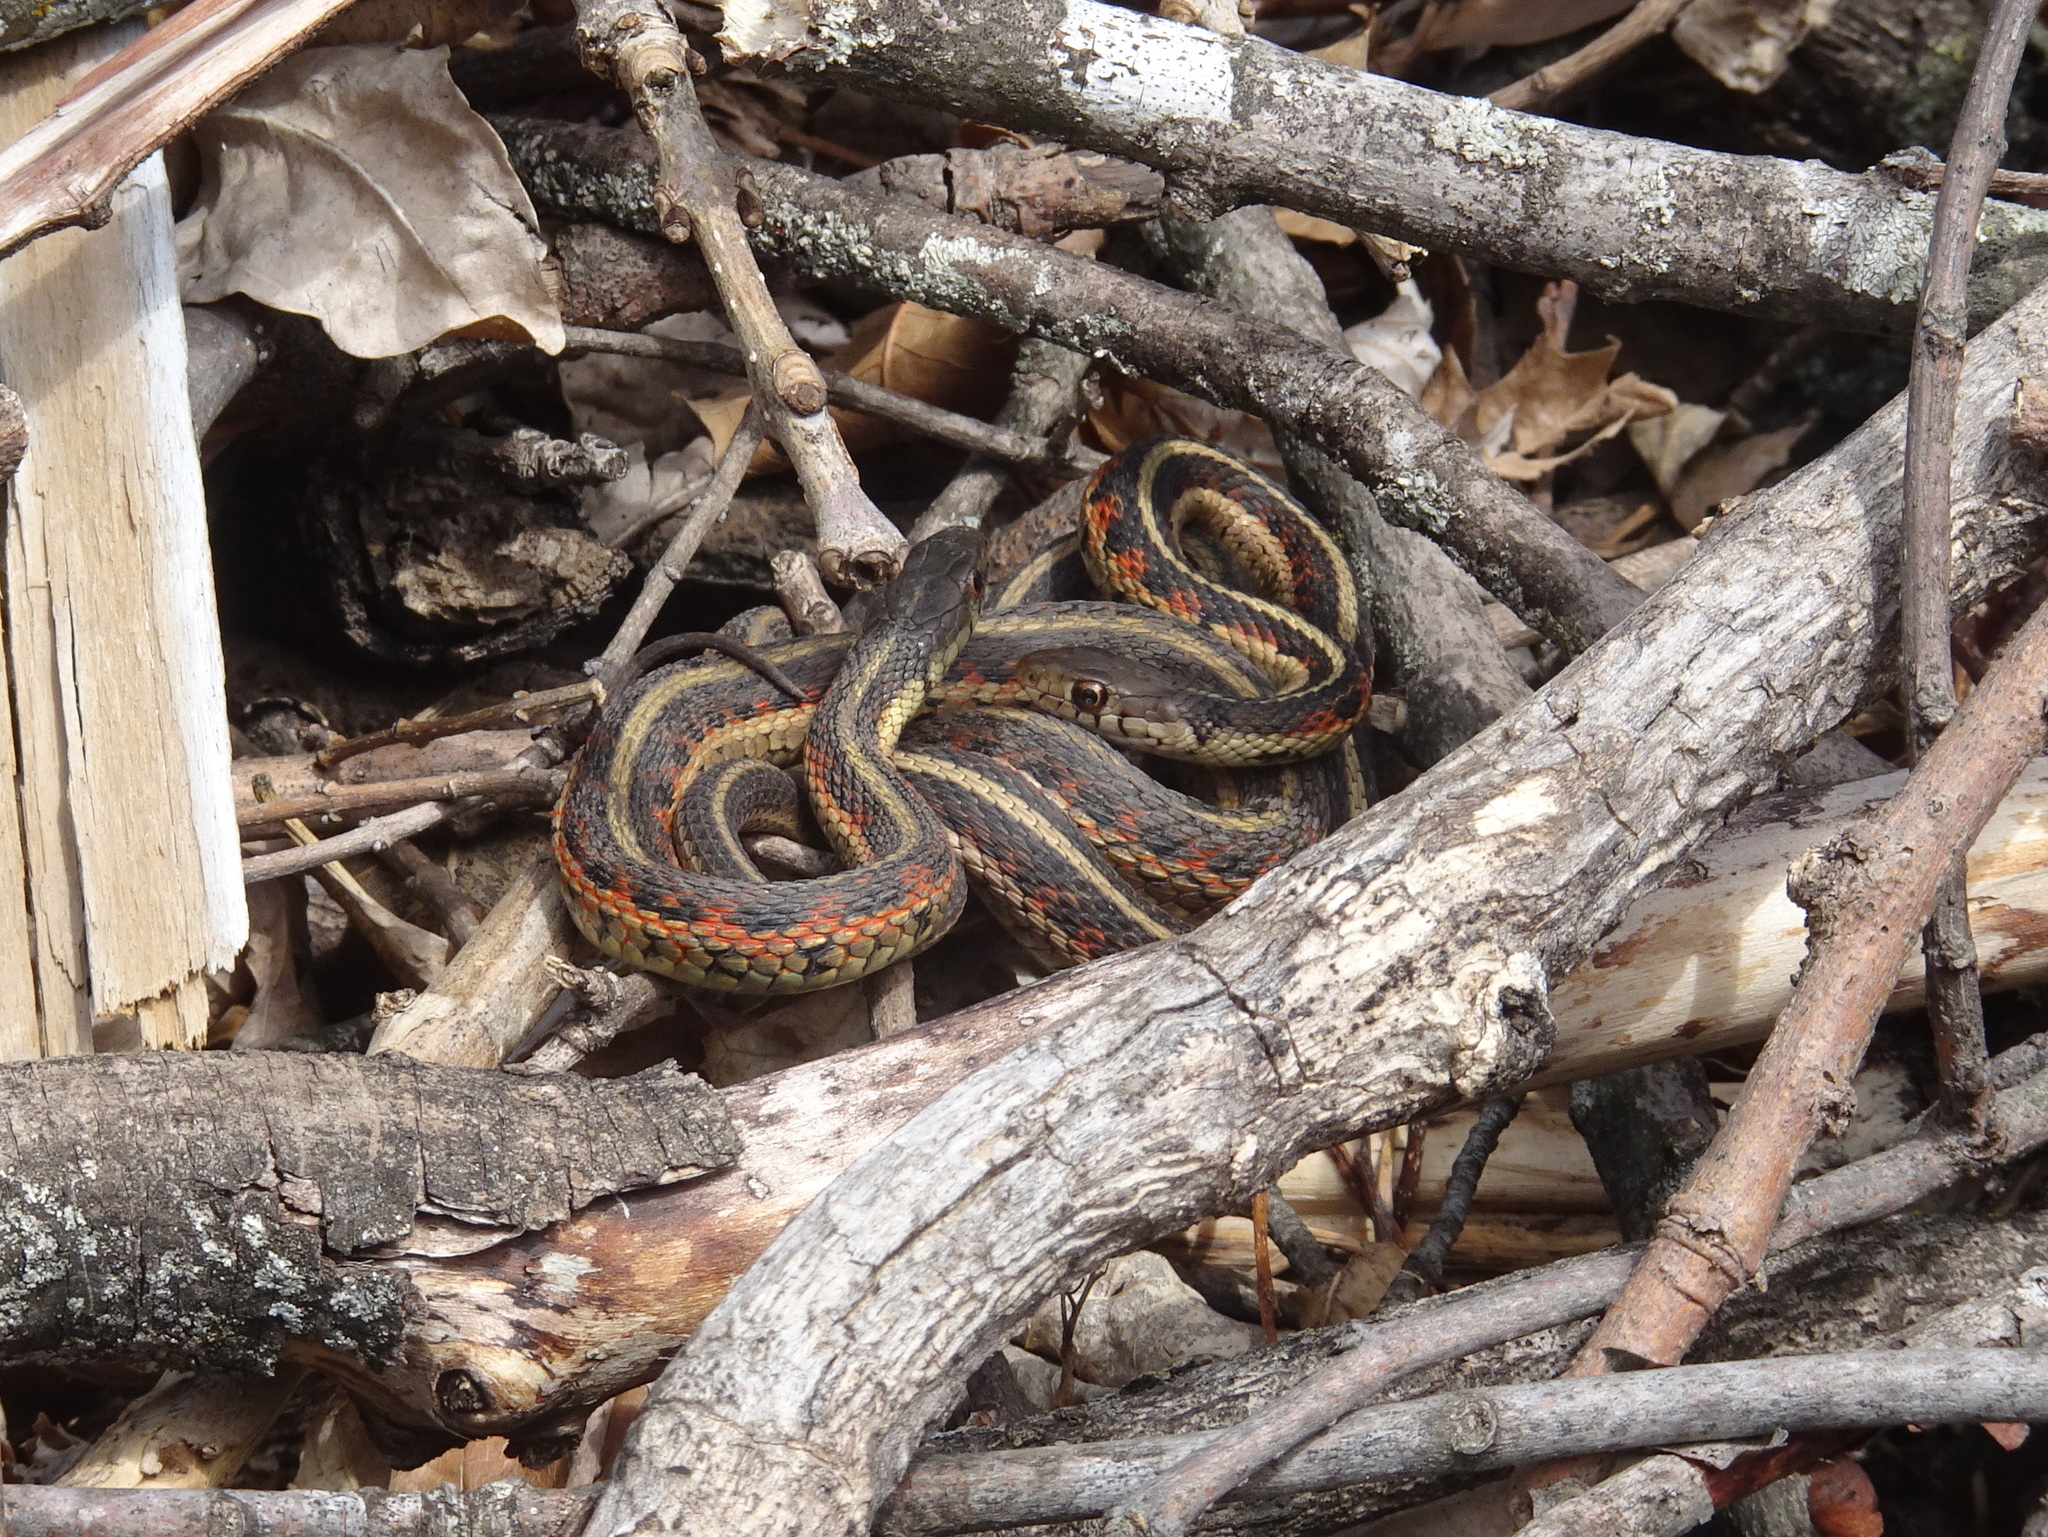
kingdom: Animalia
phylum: Chordata
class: Squamata
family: Colubridae
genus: Thamnophis
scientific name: Thamnophis sirtalis
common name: Common garter snake
